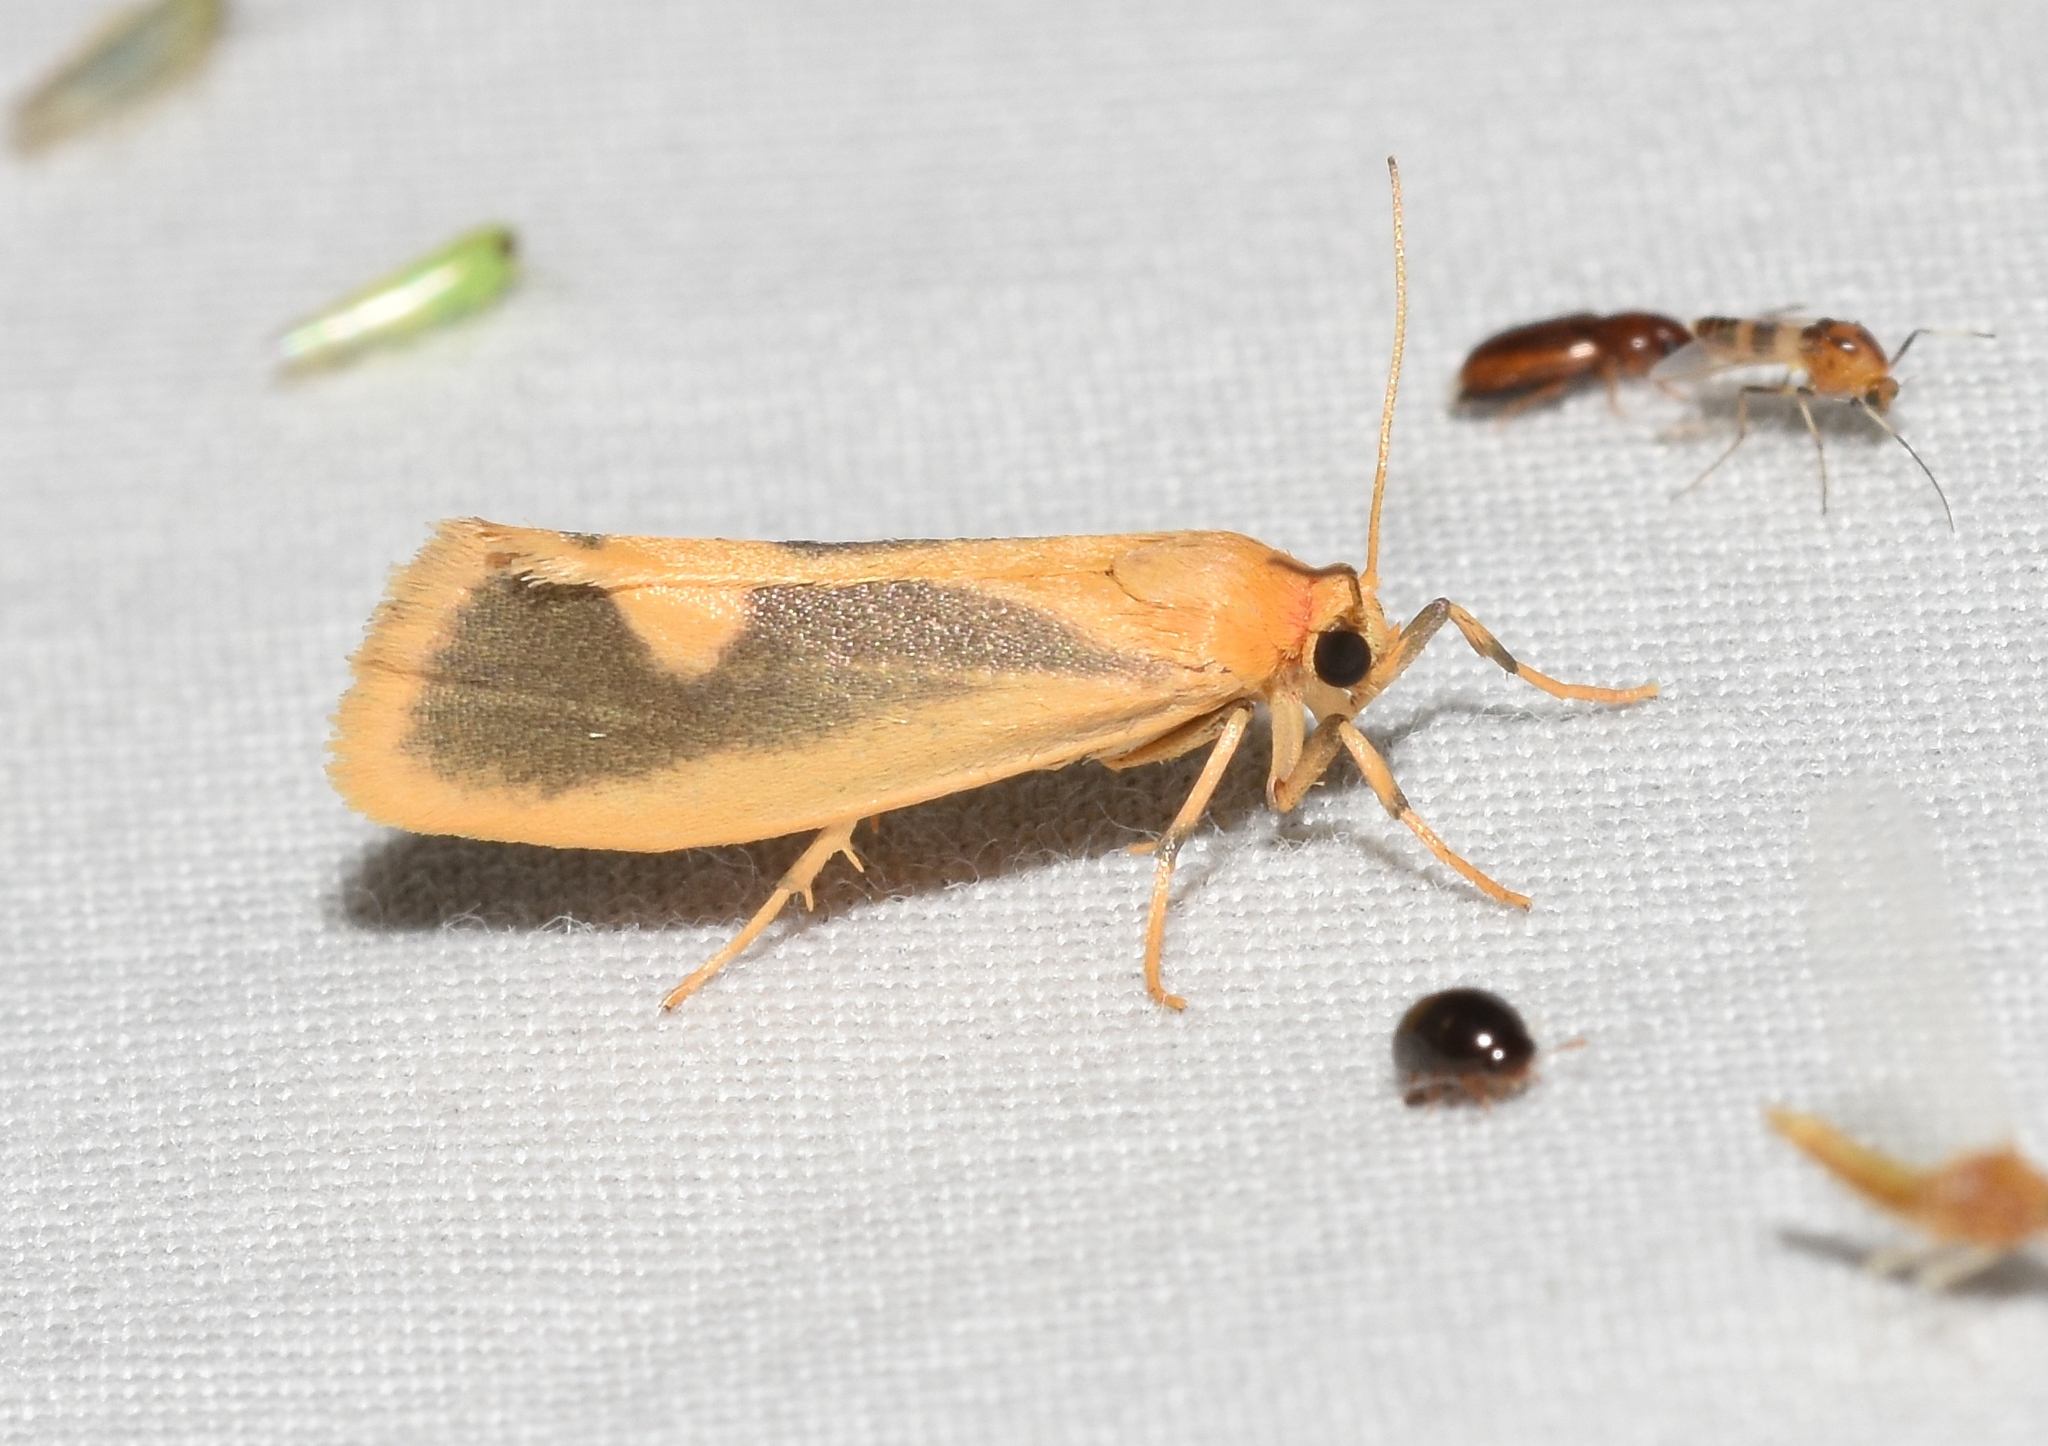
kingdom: Animalia
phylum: Arthropoda
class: Insecta
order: Lepidoptera
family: Erebidae
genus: Cisthene
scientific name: Cisthene plumbea
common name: Lead colored lichen moth
